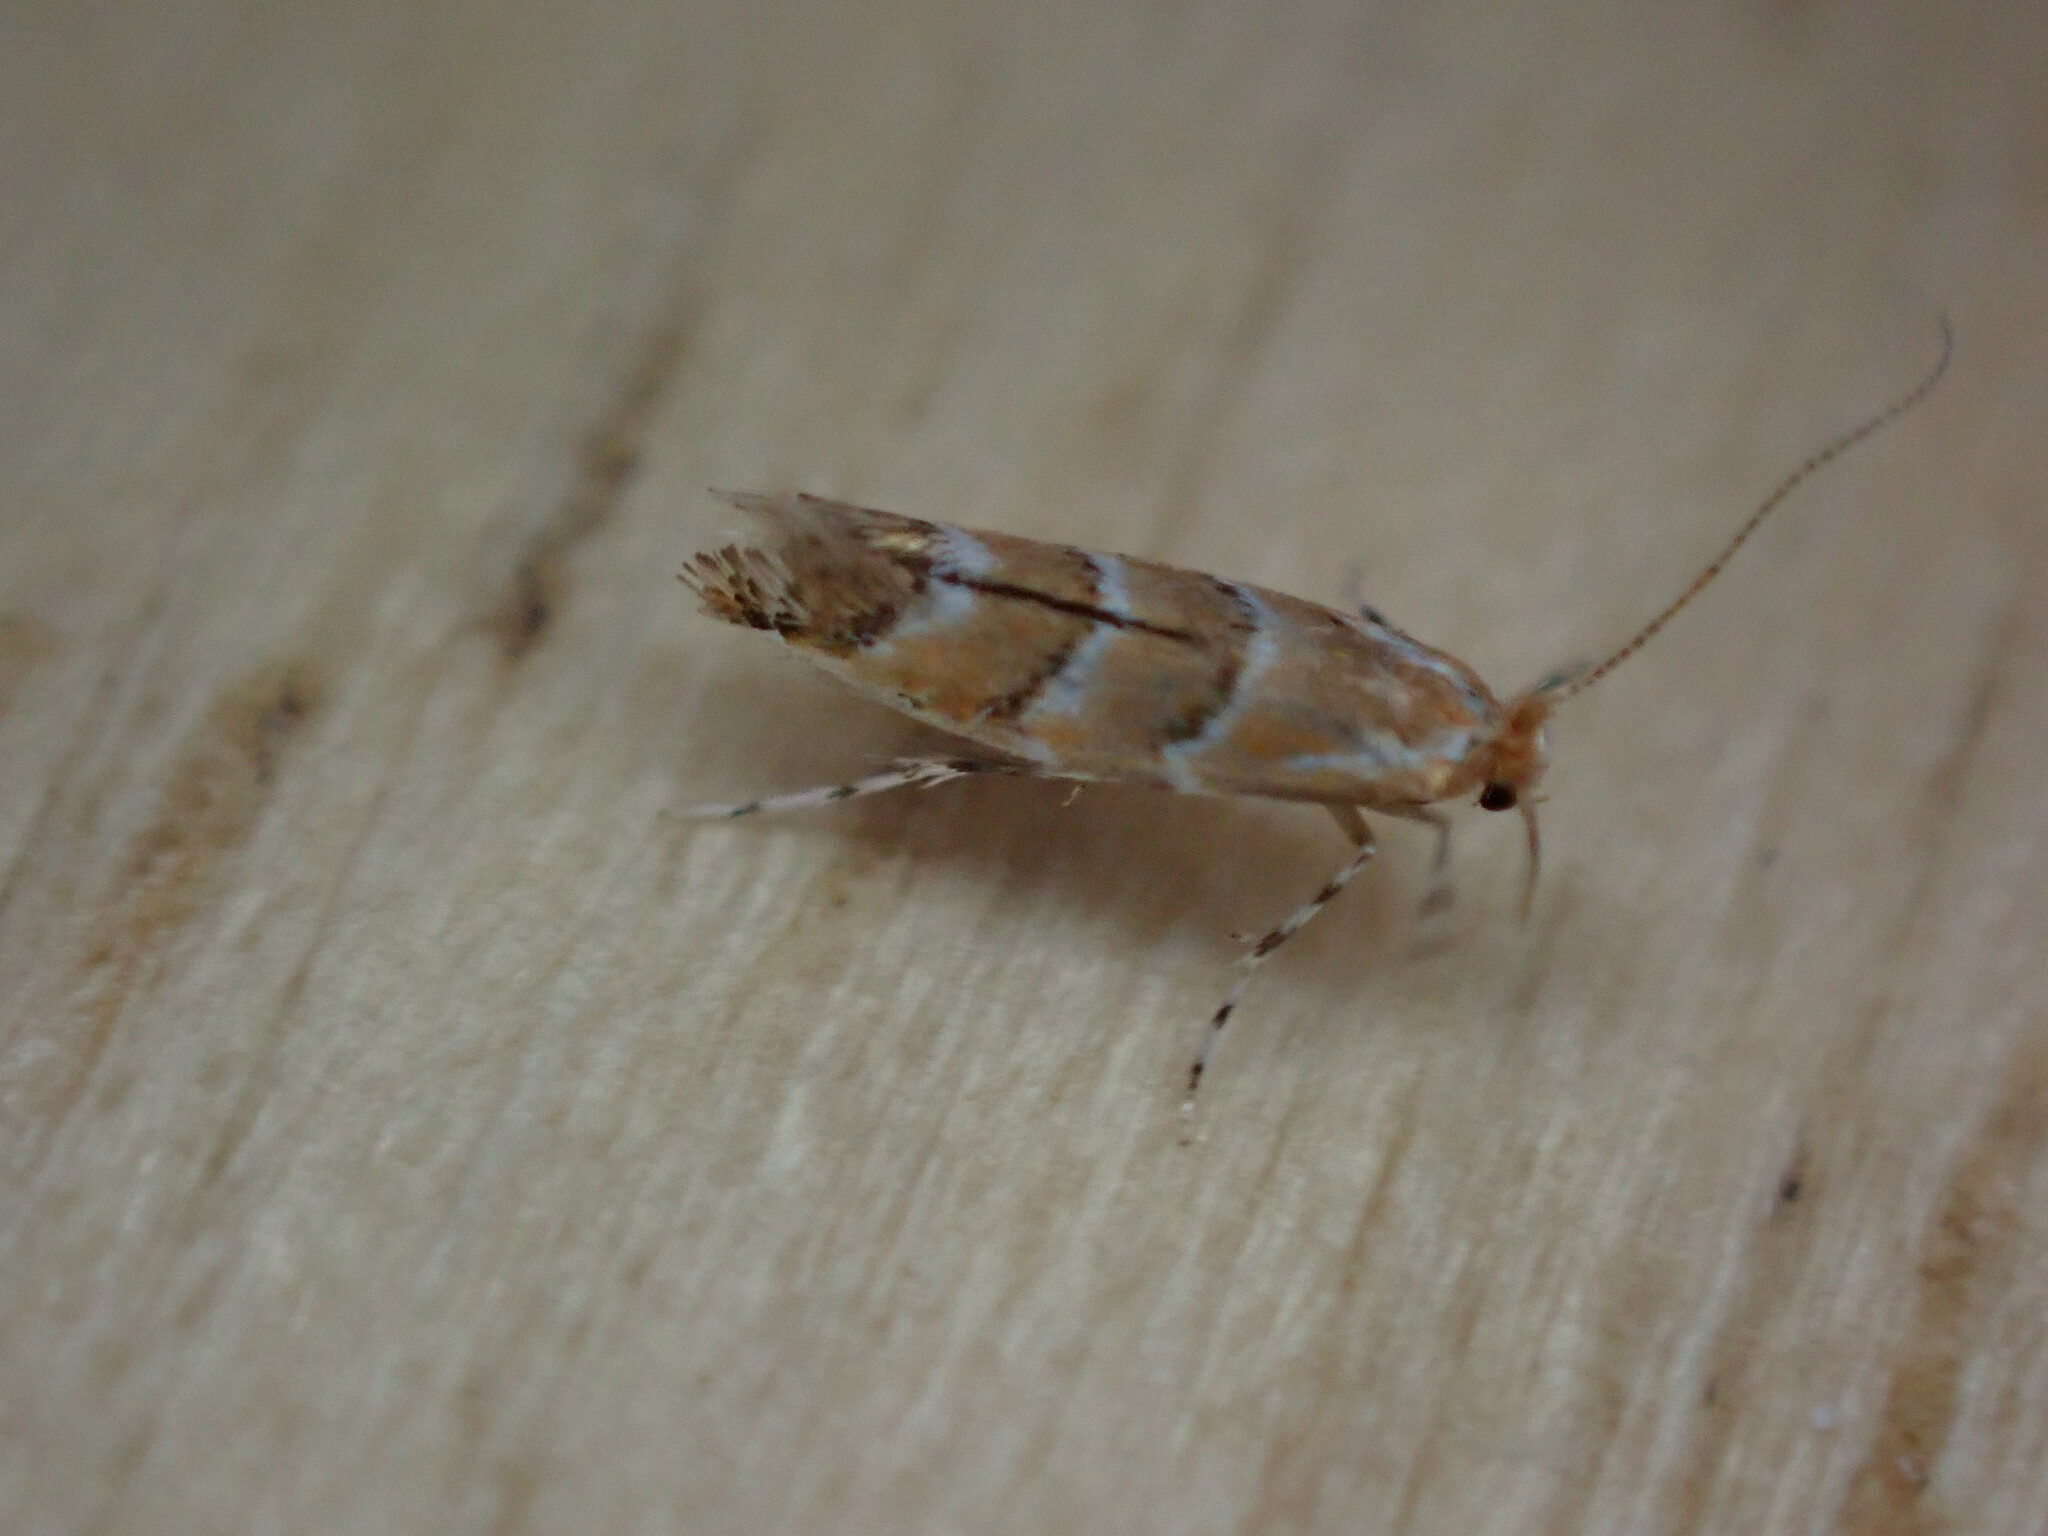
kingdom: Animalia
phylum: Arthropoda
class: Insecta
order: Lepidoptera
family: Gracillariidae
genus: Cameraria
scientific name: Cameraria ohridella
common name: Horse-chestnut leaf-miner
